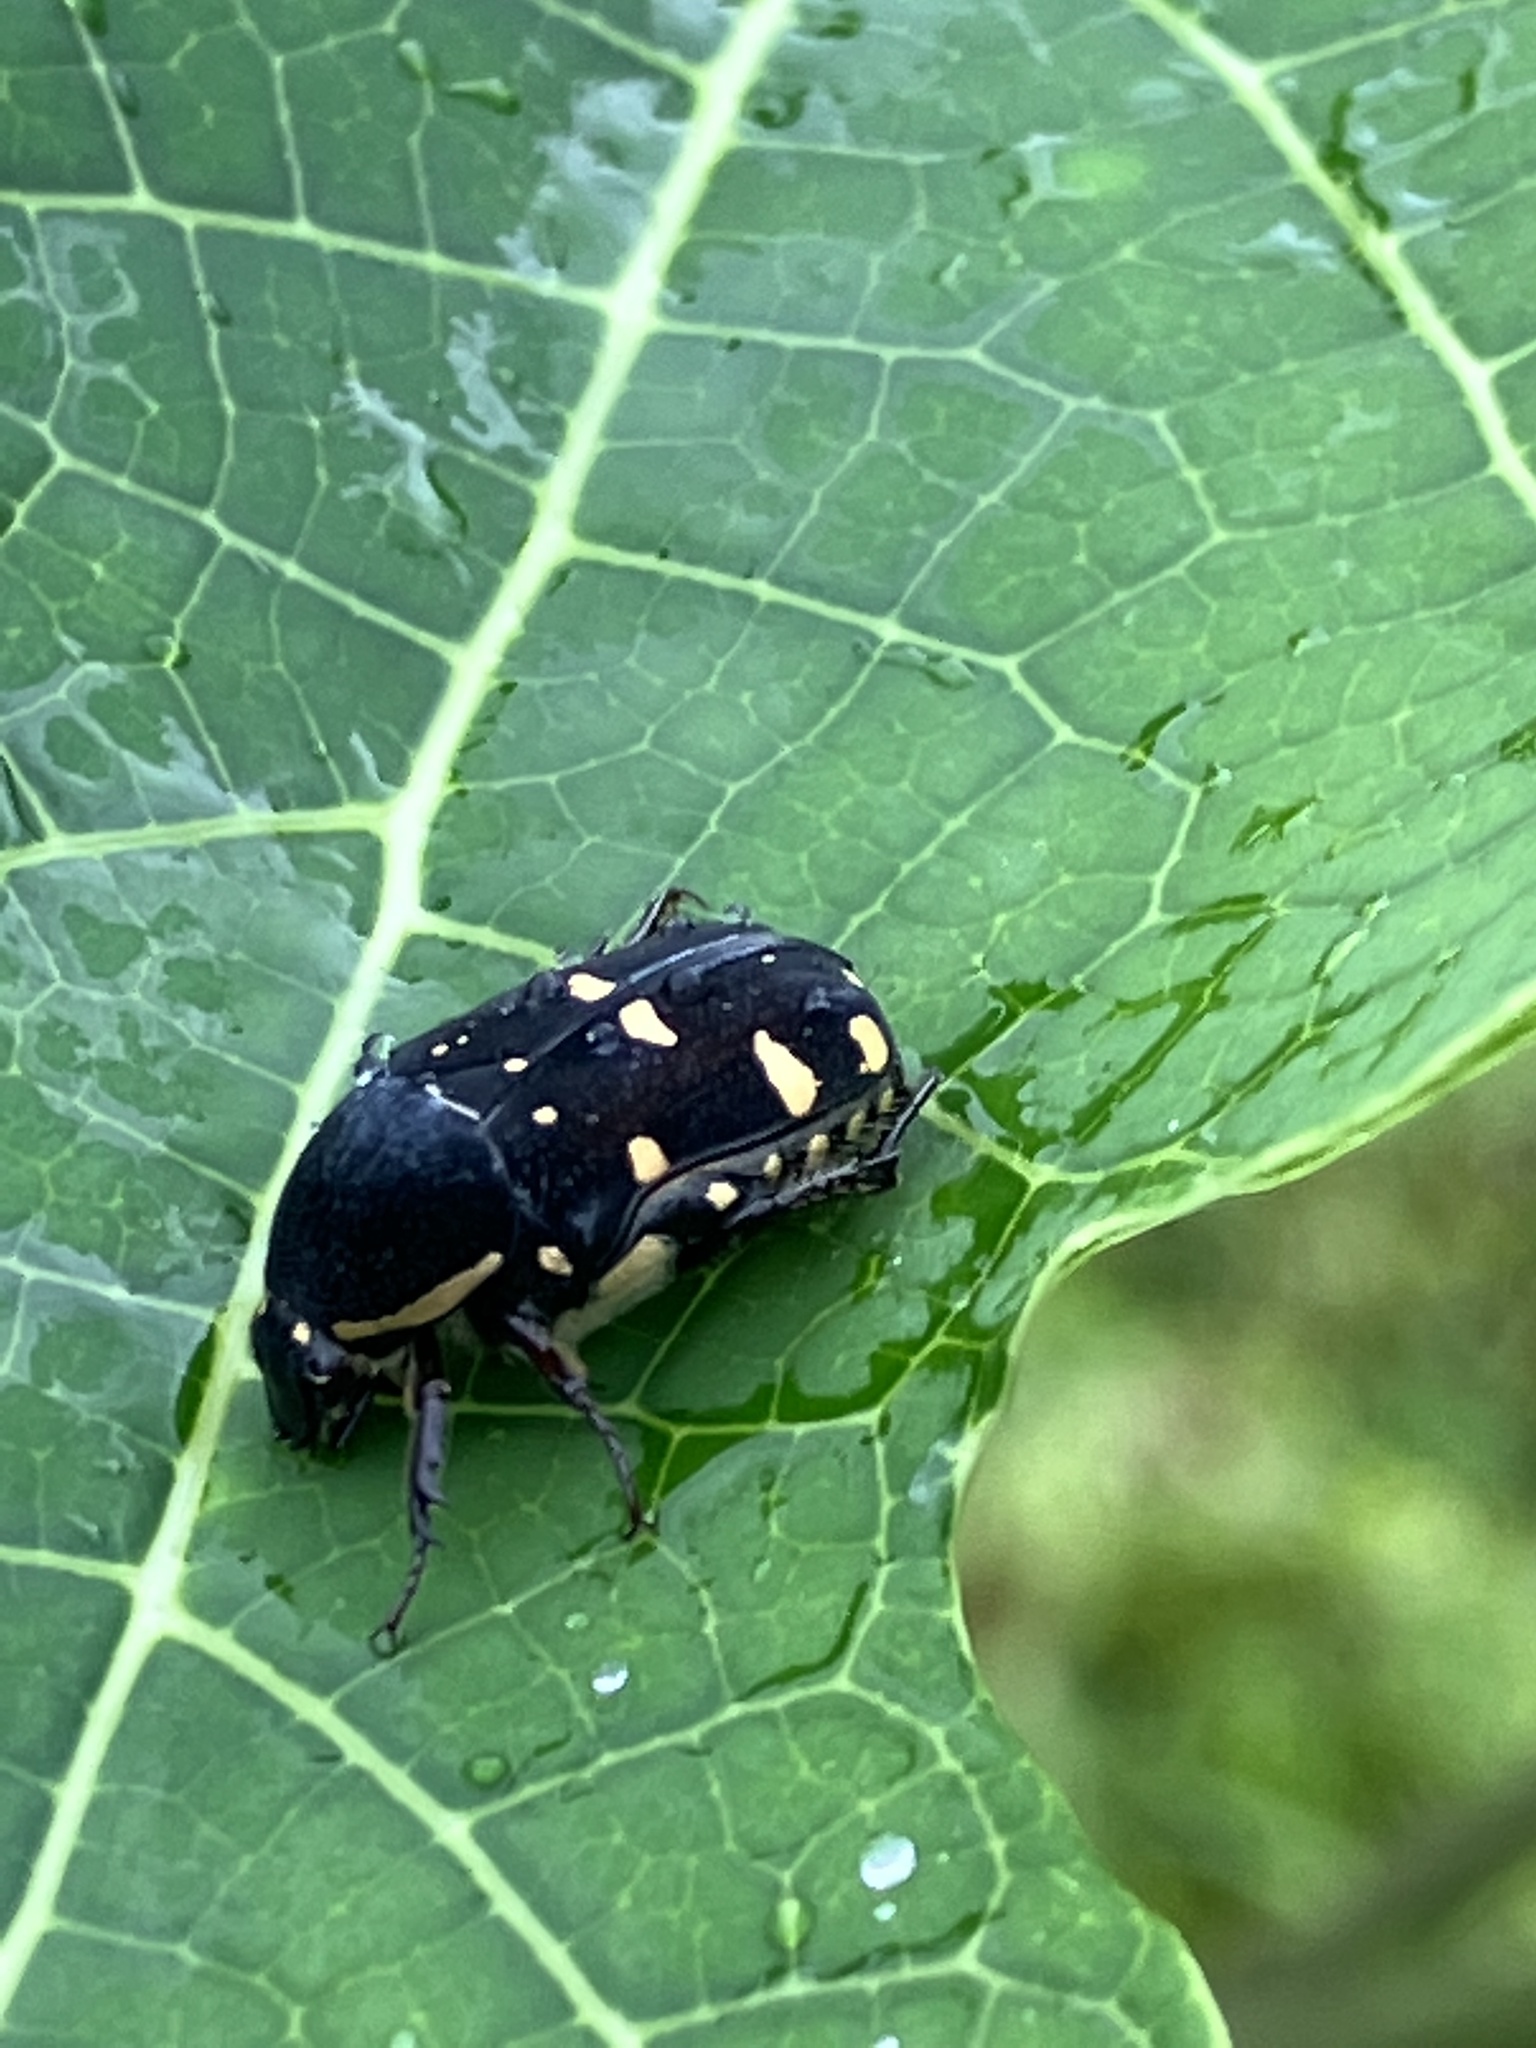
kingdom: Animalia
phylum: Arthropoda
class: Insecta
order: Coleoptera
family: Scarabaeidae
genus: Gametis
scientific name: Gametis versicolor
